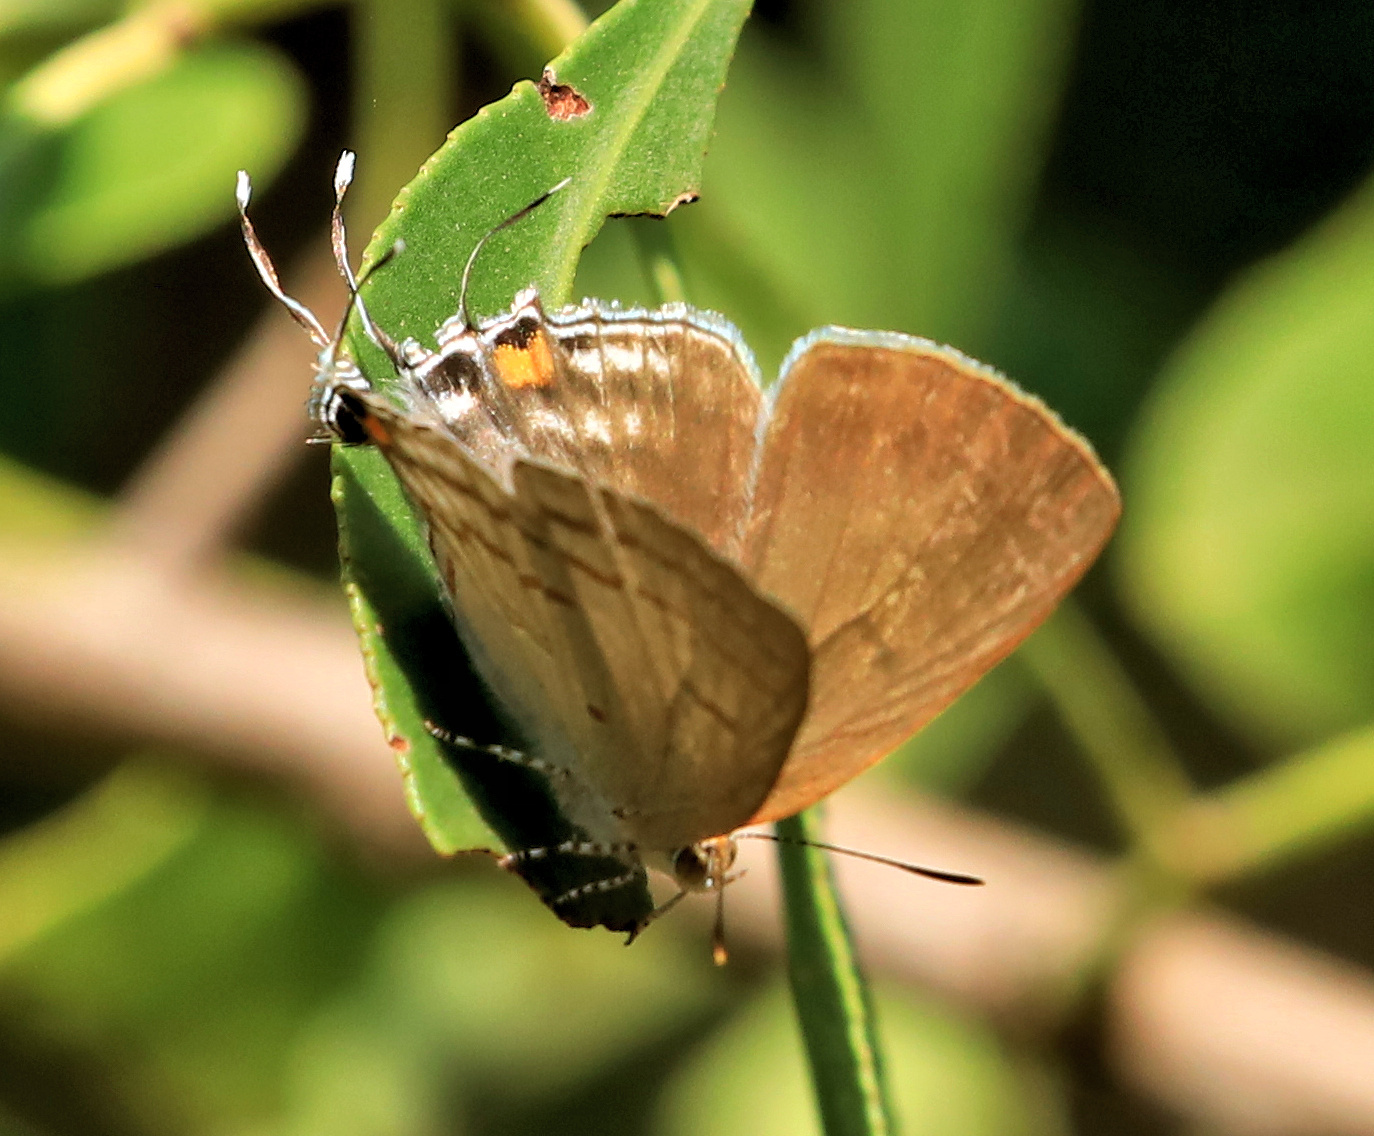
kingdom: Animalia
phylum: Arthropoda
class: Insecta
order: Lepidoptera
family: Lycaenidae
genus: Hypolycaena
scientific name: Hypolycaena philippus
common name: Common hairstreak
